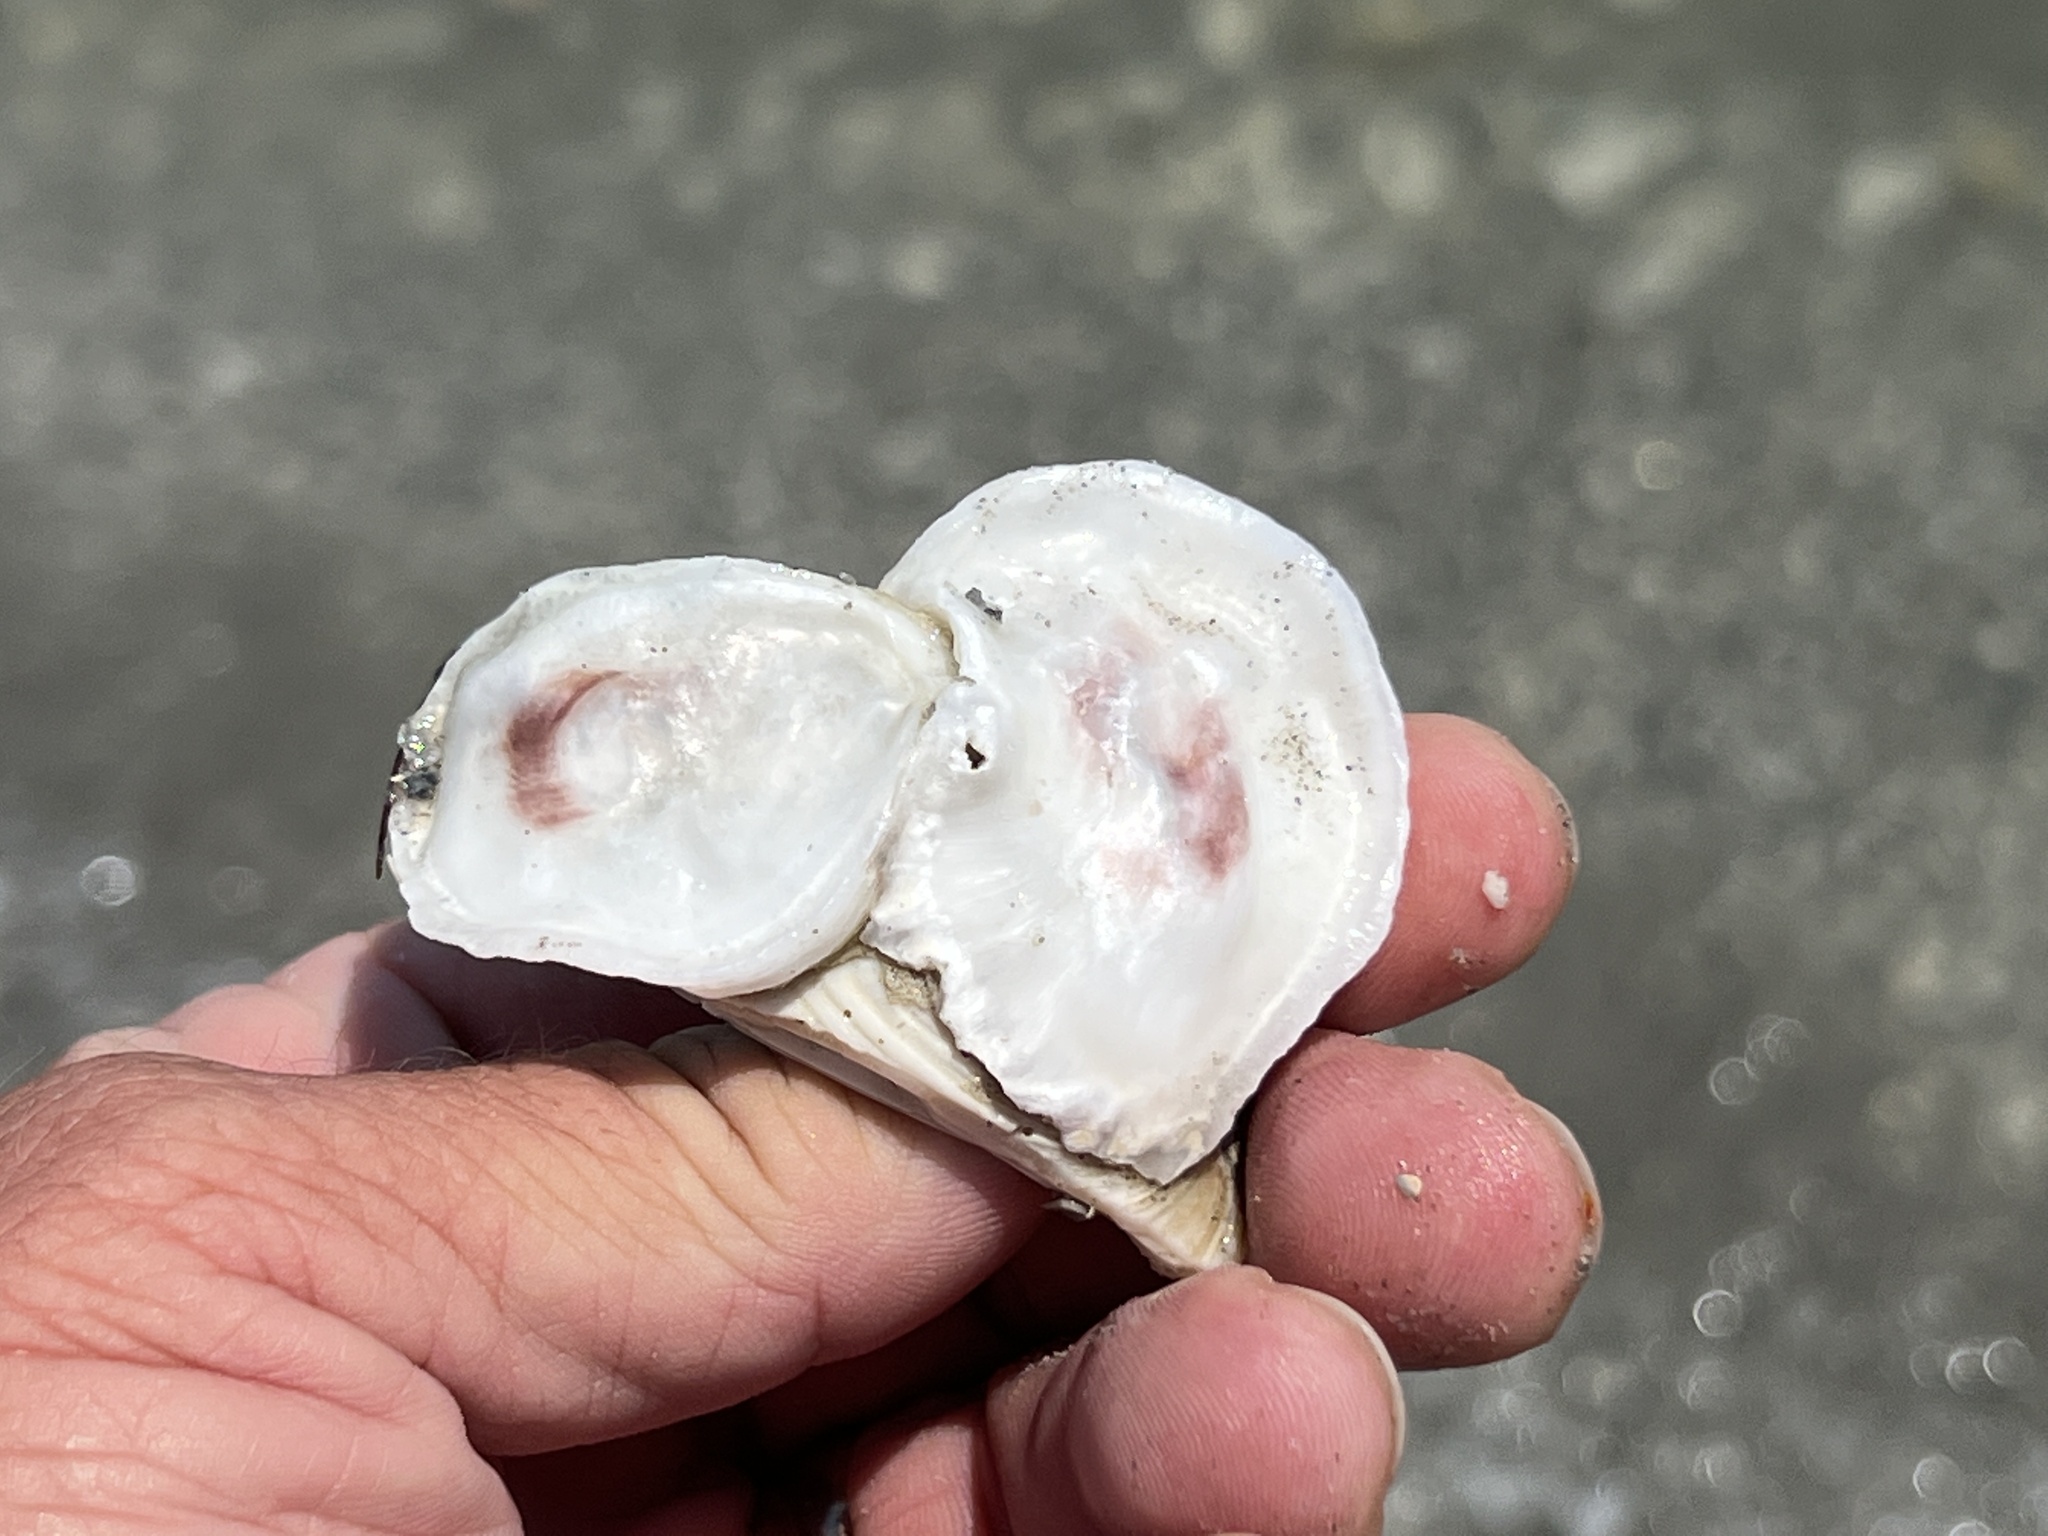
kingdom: Animalia
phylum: Mollusca
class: Bivalvia
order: Ostreida
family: Ostreidae
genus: Crassostrea
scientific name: Crassostrea virginica
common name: American oyster
